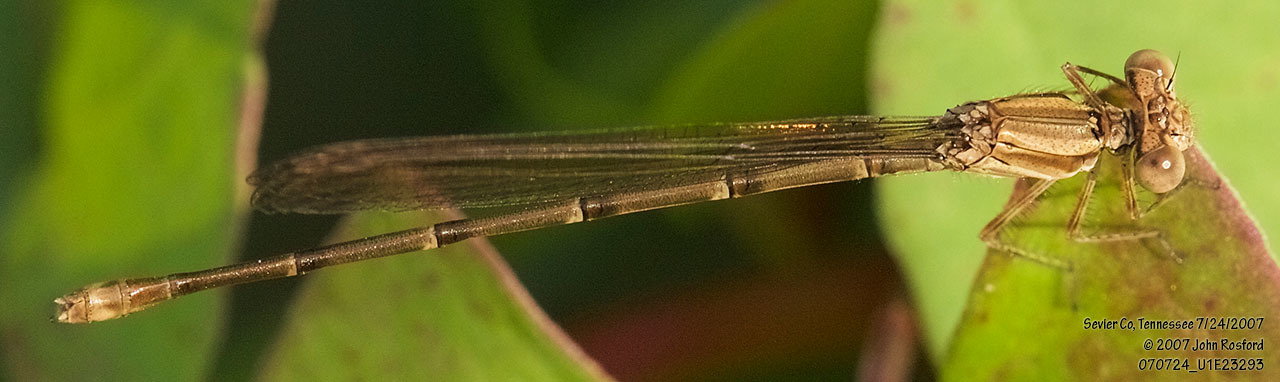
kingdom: Animalia
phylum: Arthropoda
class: Insecta
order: Odonata
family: Coenagrionidae
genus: Argia
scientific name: Argia sedula
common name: Blue-ringed dancer
